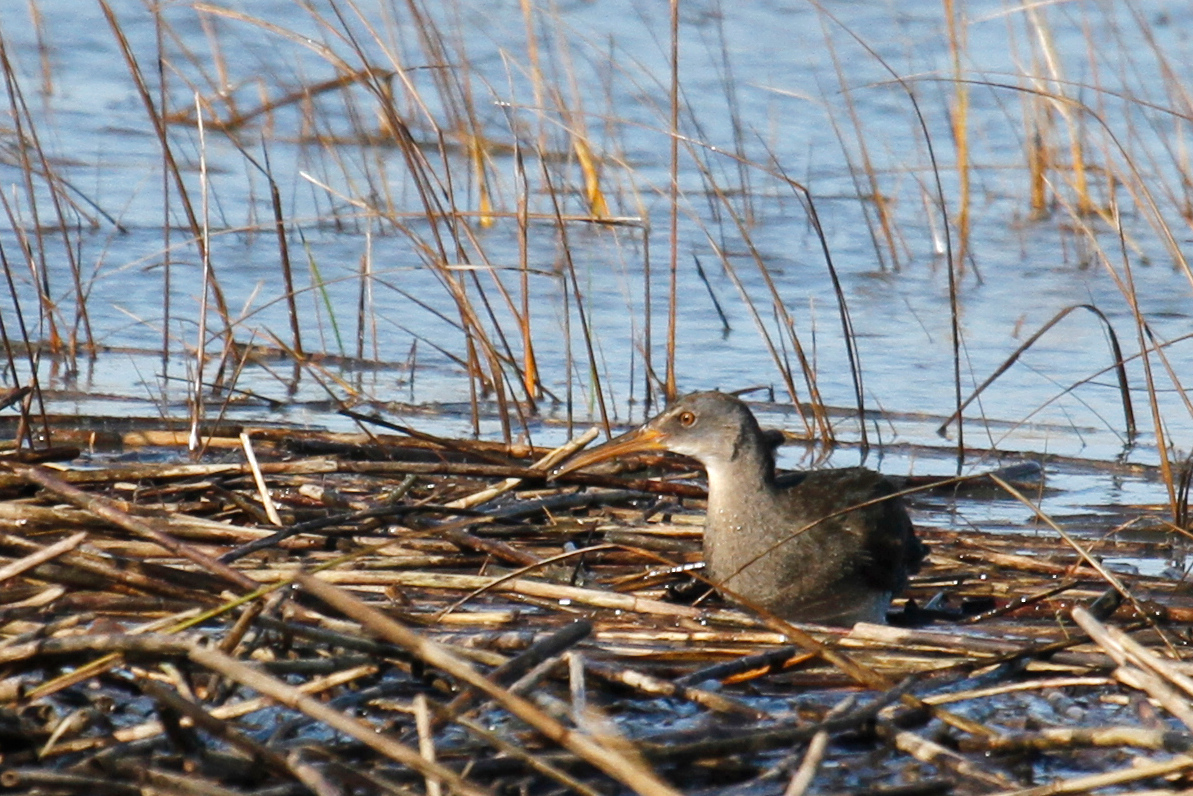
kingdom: Animalia
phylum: Chordata
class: Aves
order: Gruiformes
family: Rallidae
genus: Rallus
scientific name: Rallus crepitans
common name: Clapper rail
